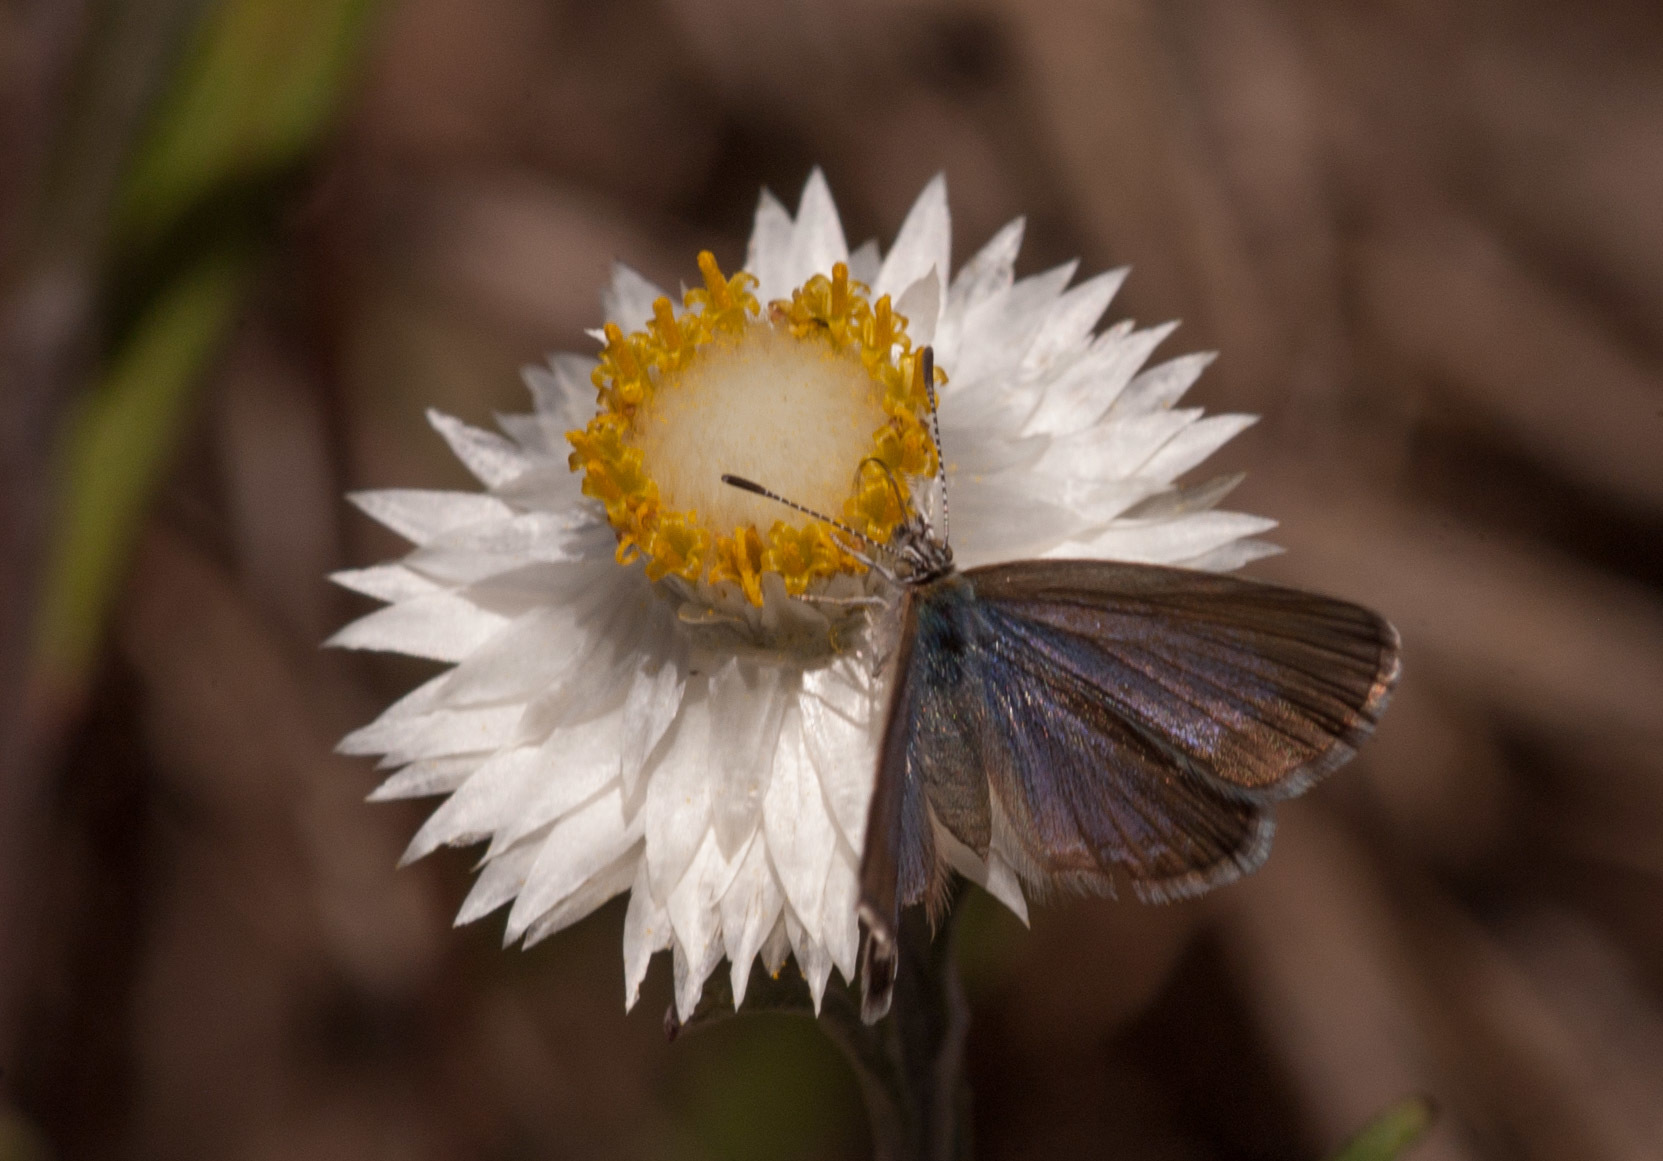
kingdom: Animalia
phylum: Arthropoda
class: Insecta
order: Lepidoptera
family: Lycaenidae
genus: Zizina
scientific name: Zizina labradus
